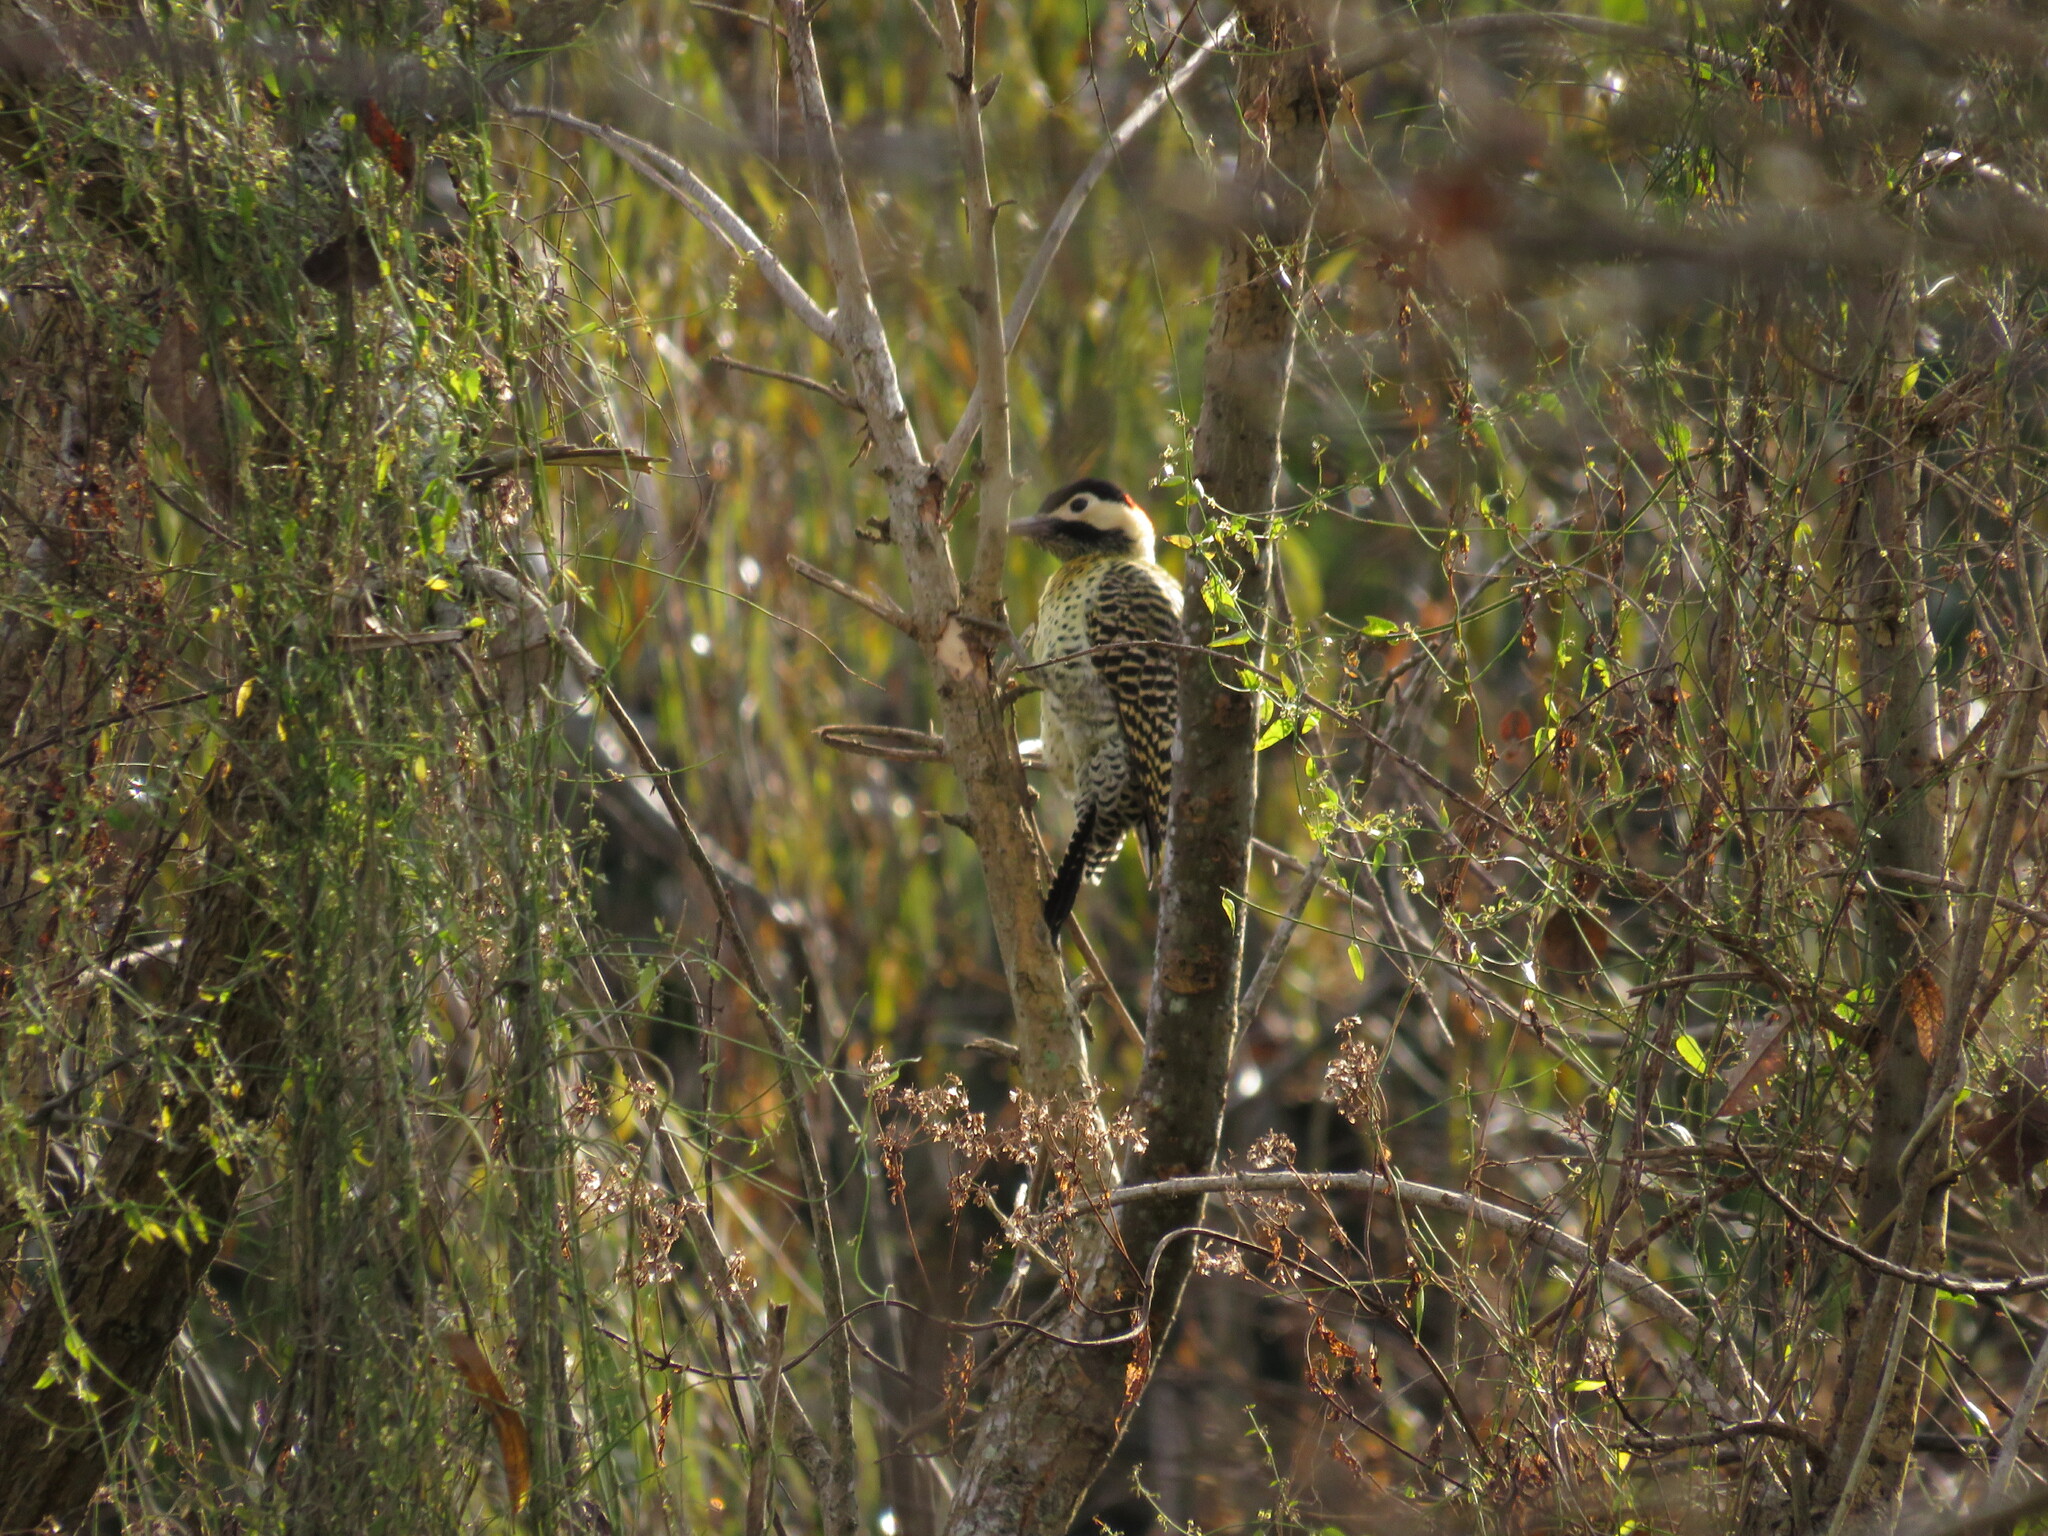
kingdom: Animalia
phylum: Chordata
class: Aves
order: Piciformes
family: Picidae
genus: Colaptes
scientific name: Colaptes melanochloros
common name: Green-barred woodpecker
